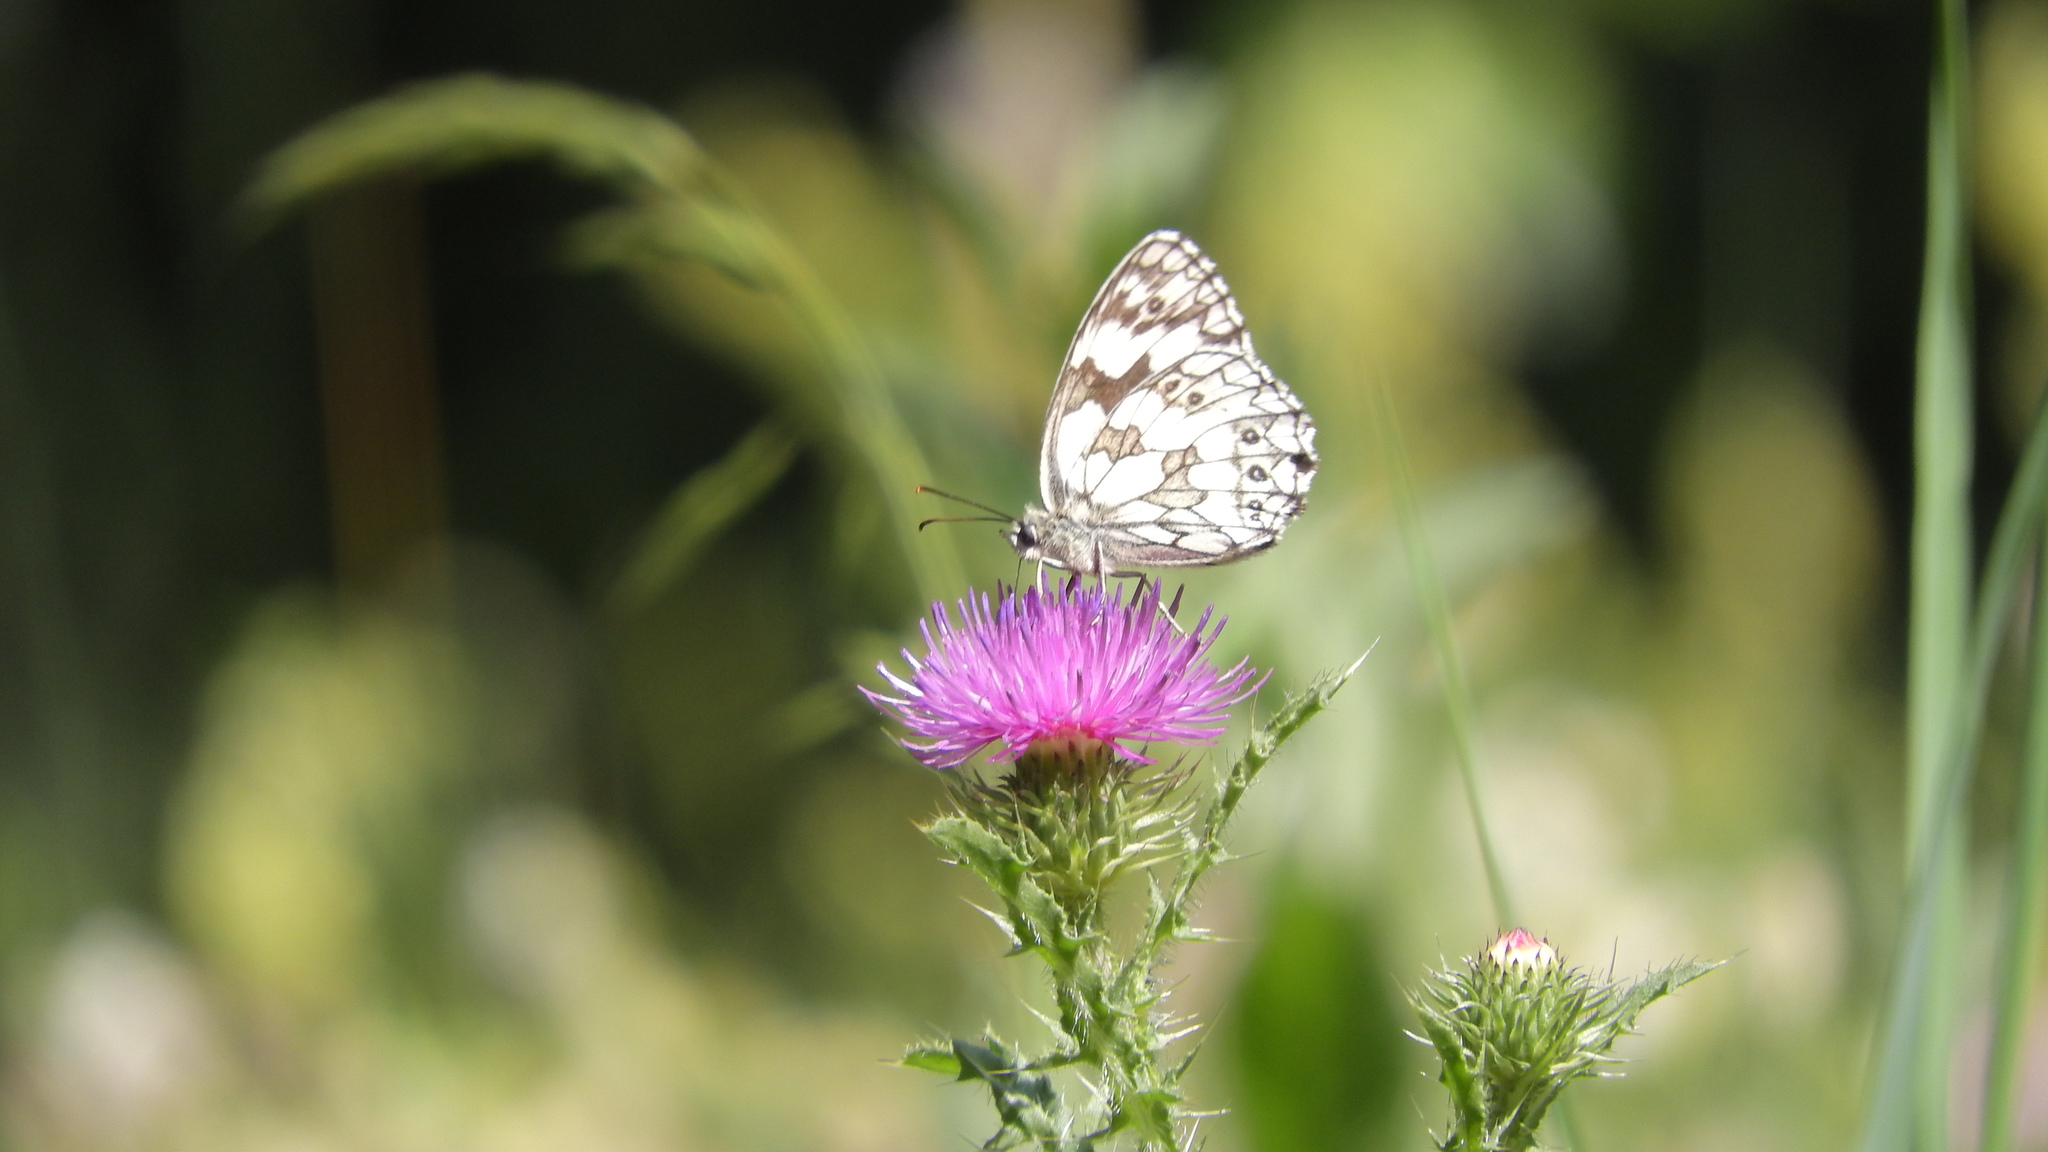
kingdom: Animalia
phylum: Arthropoda
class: Insecta
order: Lepidoptera
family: Nymphalidae
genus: Melanargia
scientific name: Melanargia galathea
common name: Marbled white
